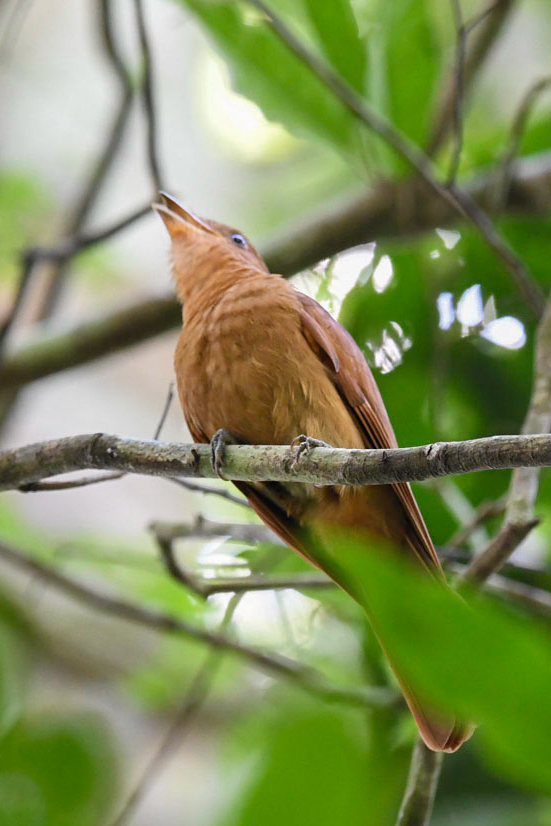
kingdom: Animalia
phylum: Chordata
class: Aves
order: Passeriformes
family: Cotingidae
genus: Lipaugus
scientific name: Lipaugus unirufus
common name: Rufous piha
